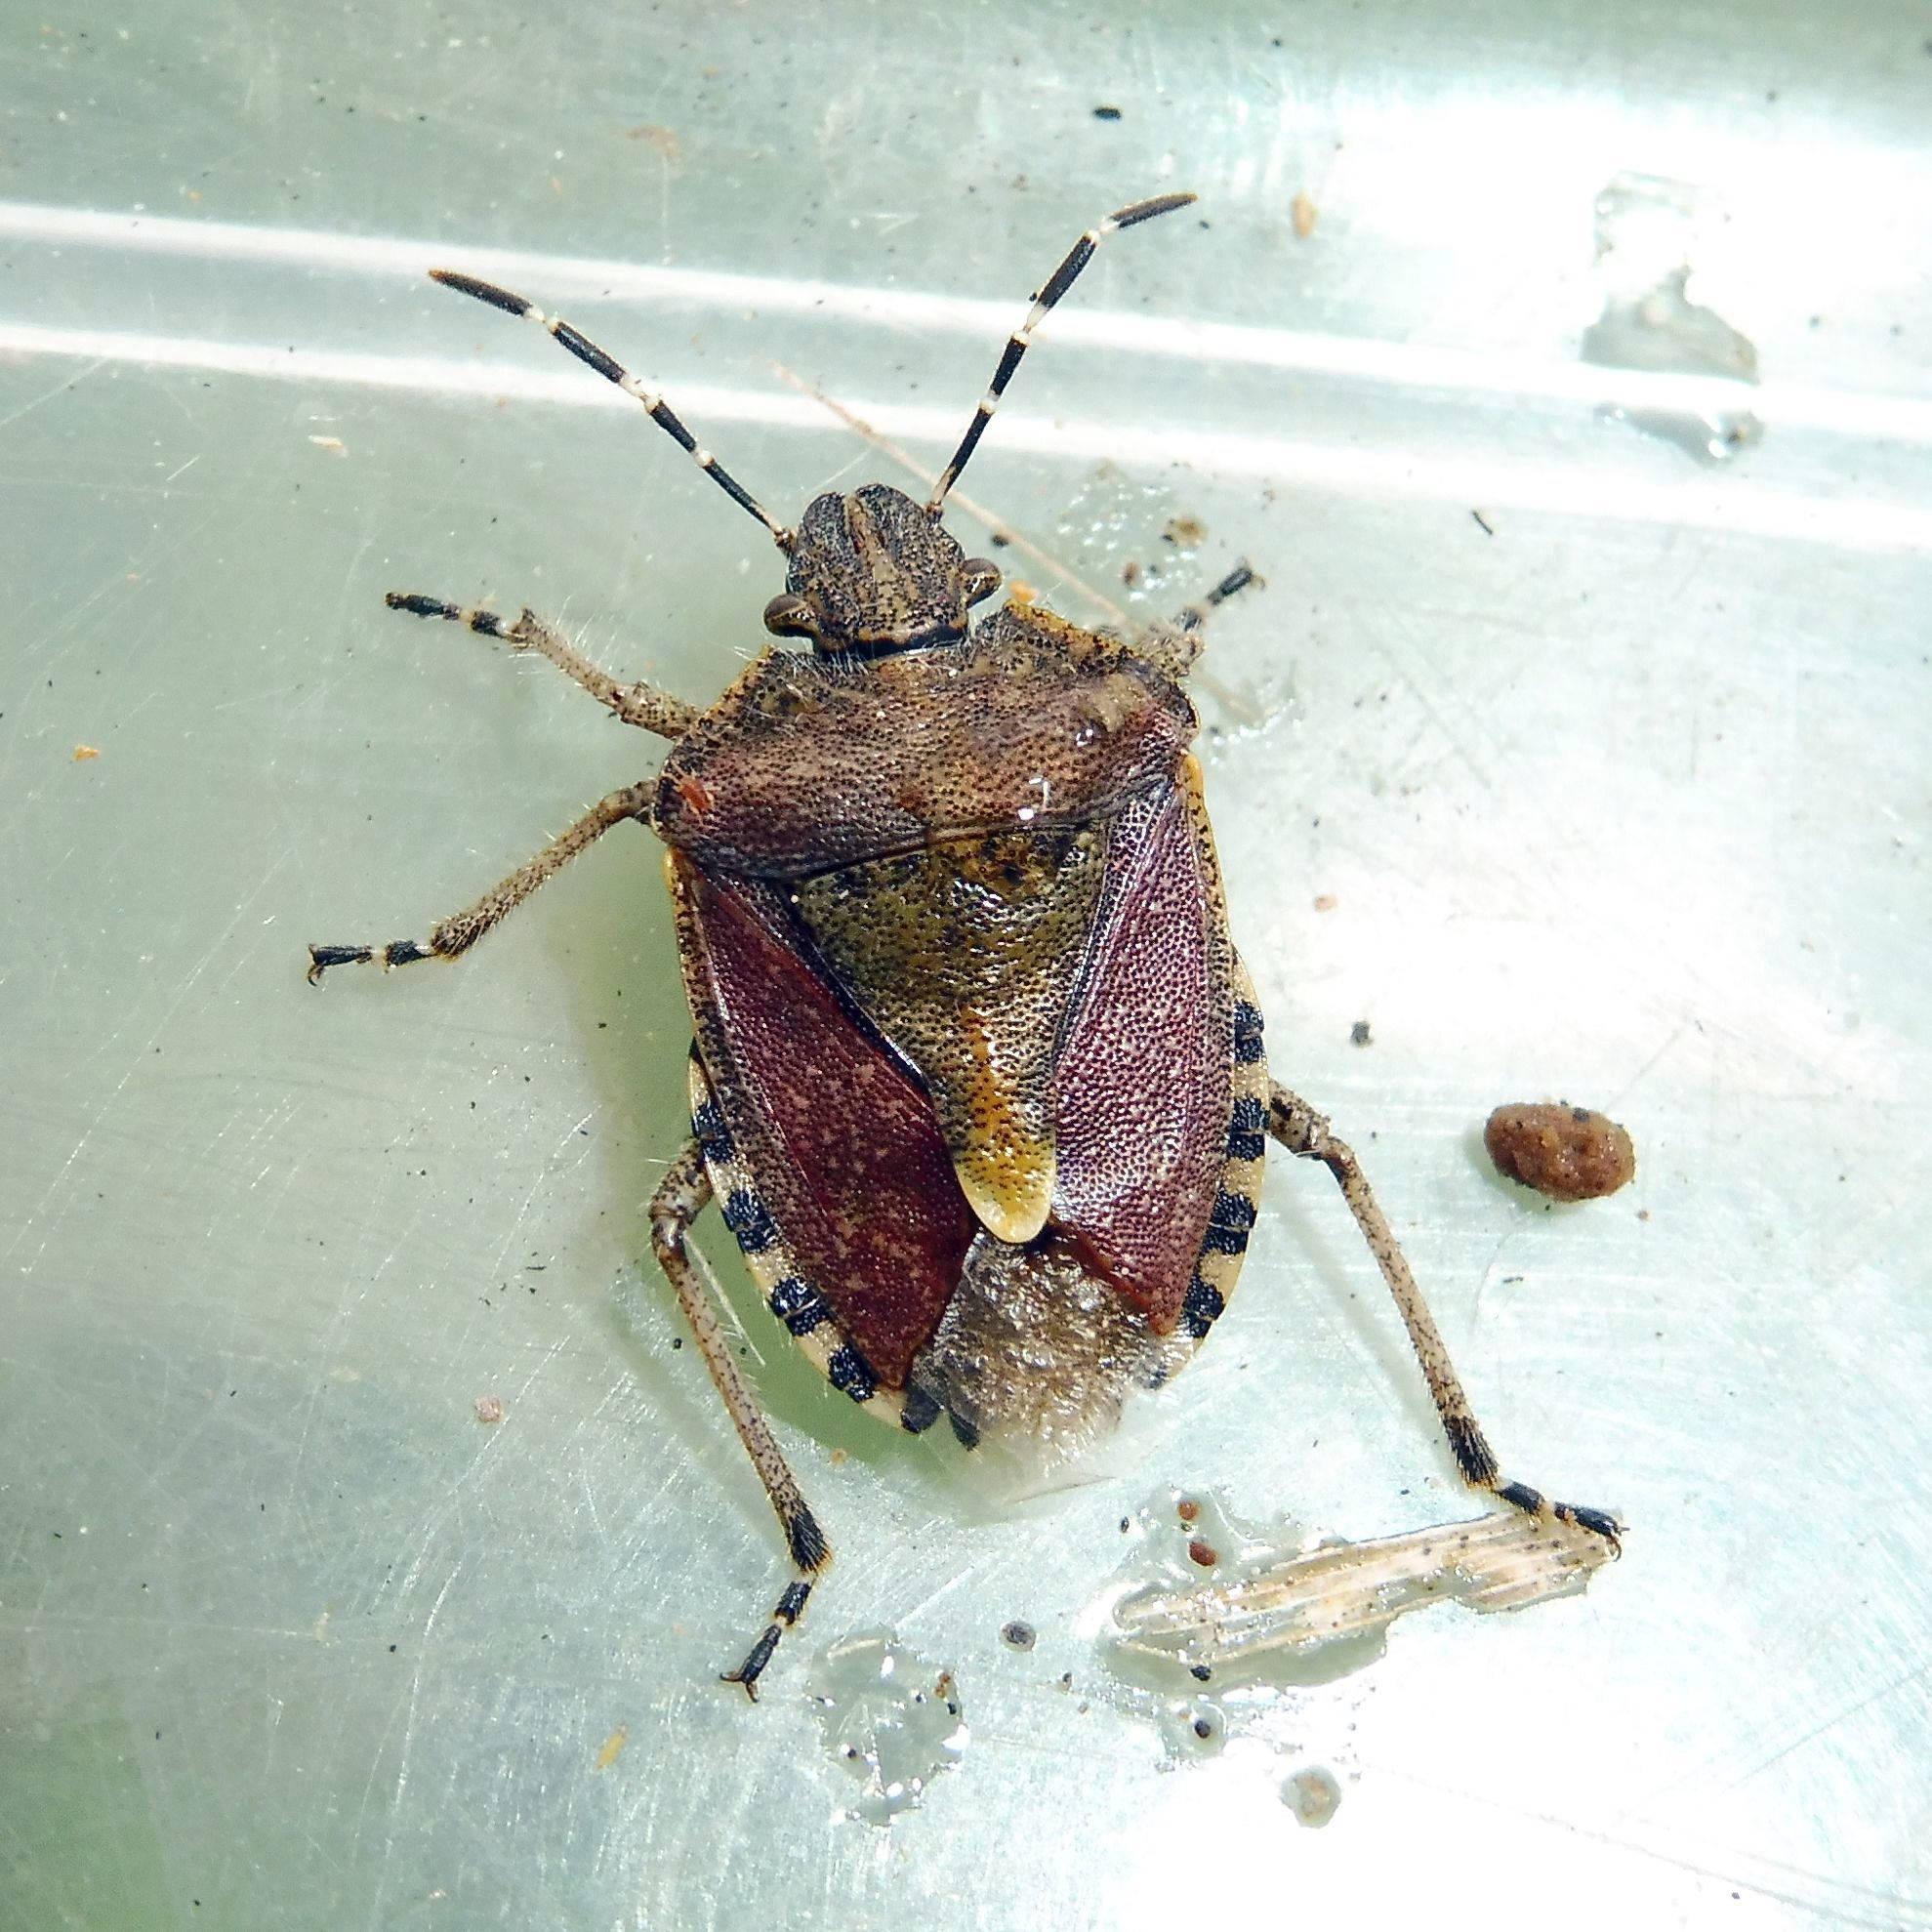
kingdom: Animalia
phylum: Arthropoda
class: Insecta
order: Hemiptera
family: Pentatomidae
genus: Dolycoris
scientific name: Dolycoris baccarum
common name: Sloe bug
